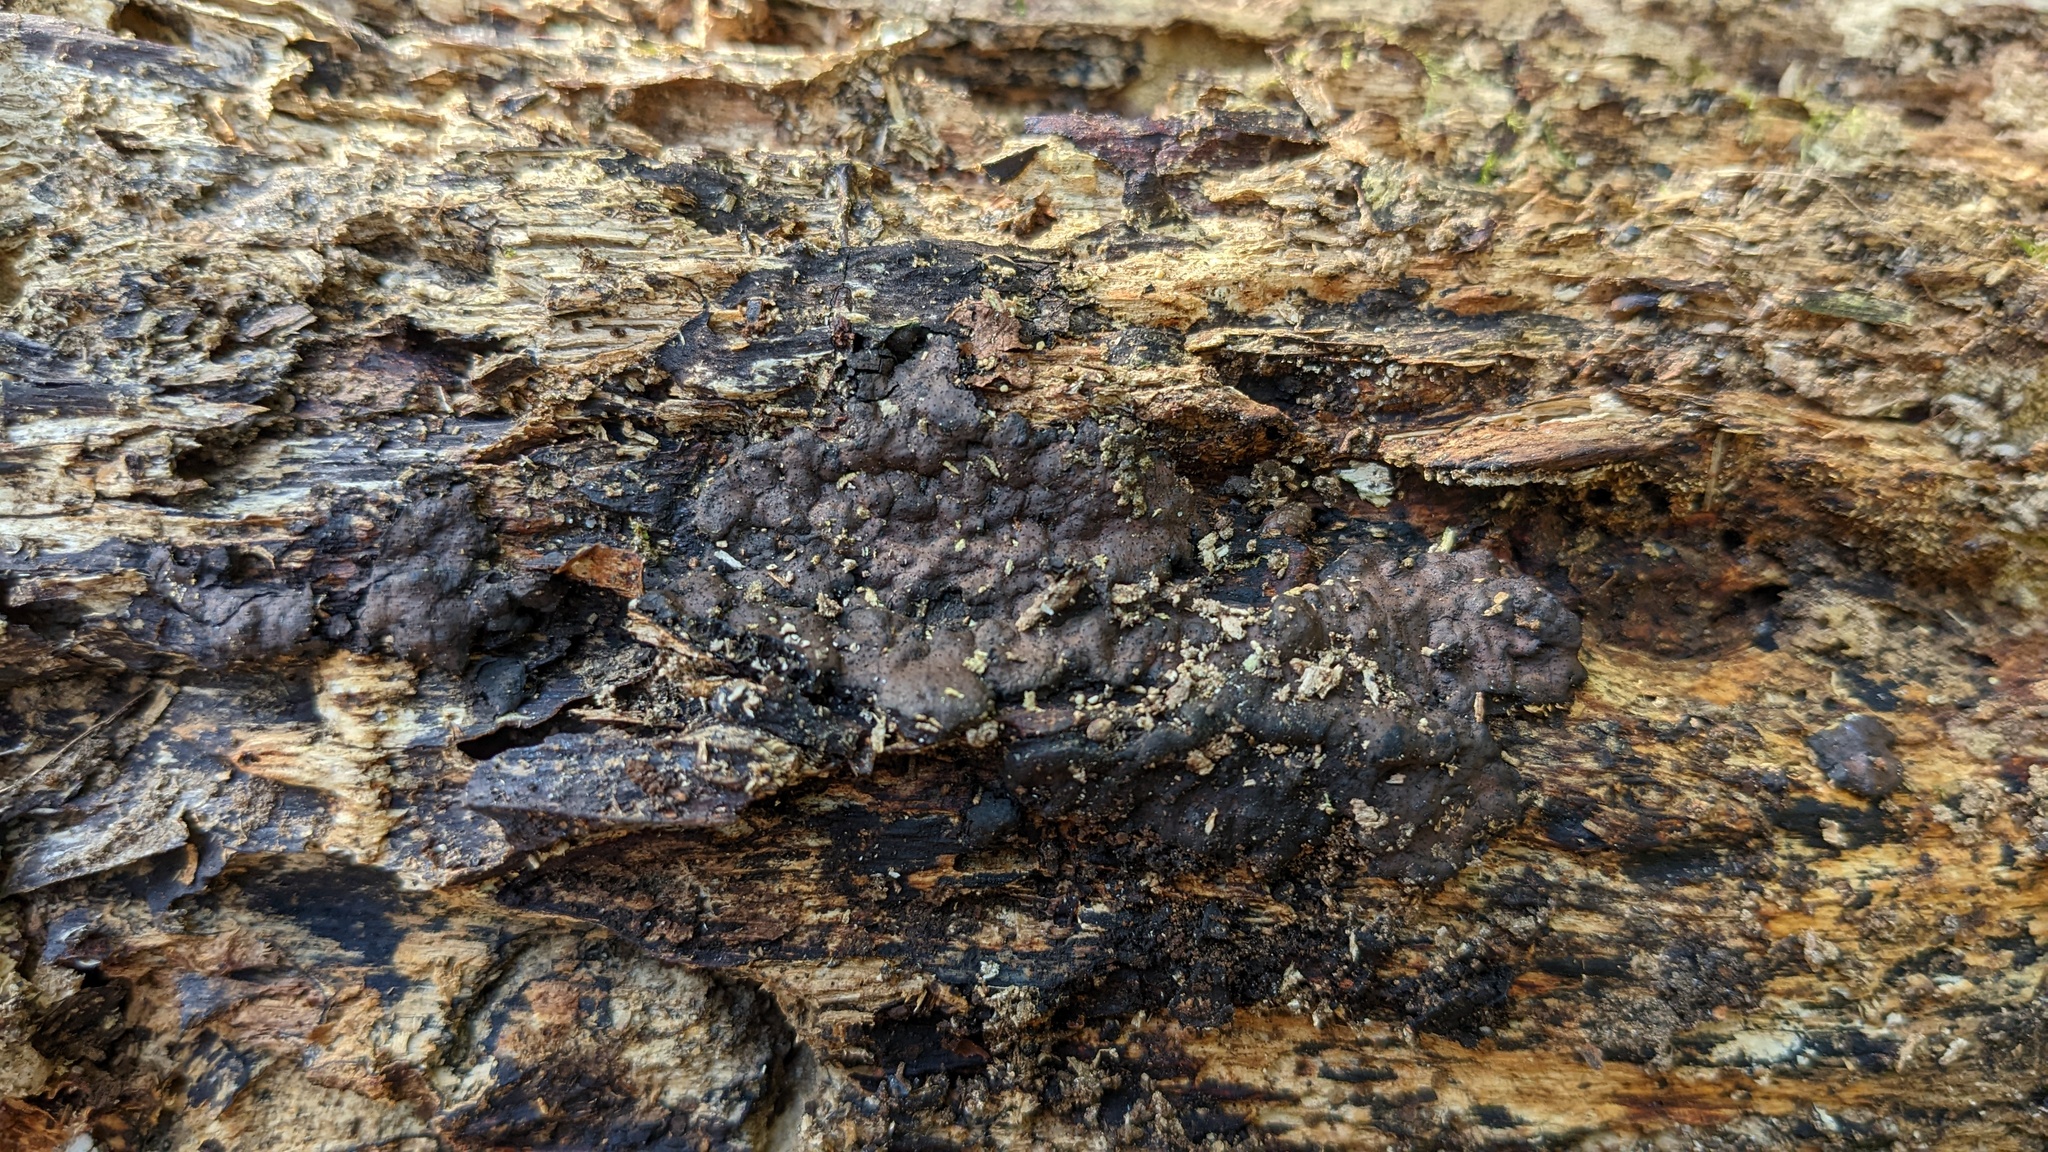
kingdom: Fungi
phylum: Ascomycota
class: Sordariomycetes
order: Xylariales
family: Xylariaceae
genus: Kretzschmaria
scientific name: Kretzschmaria deusta
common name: Brittle cinder
